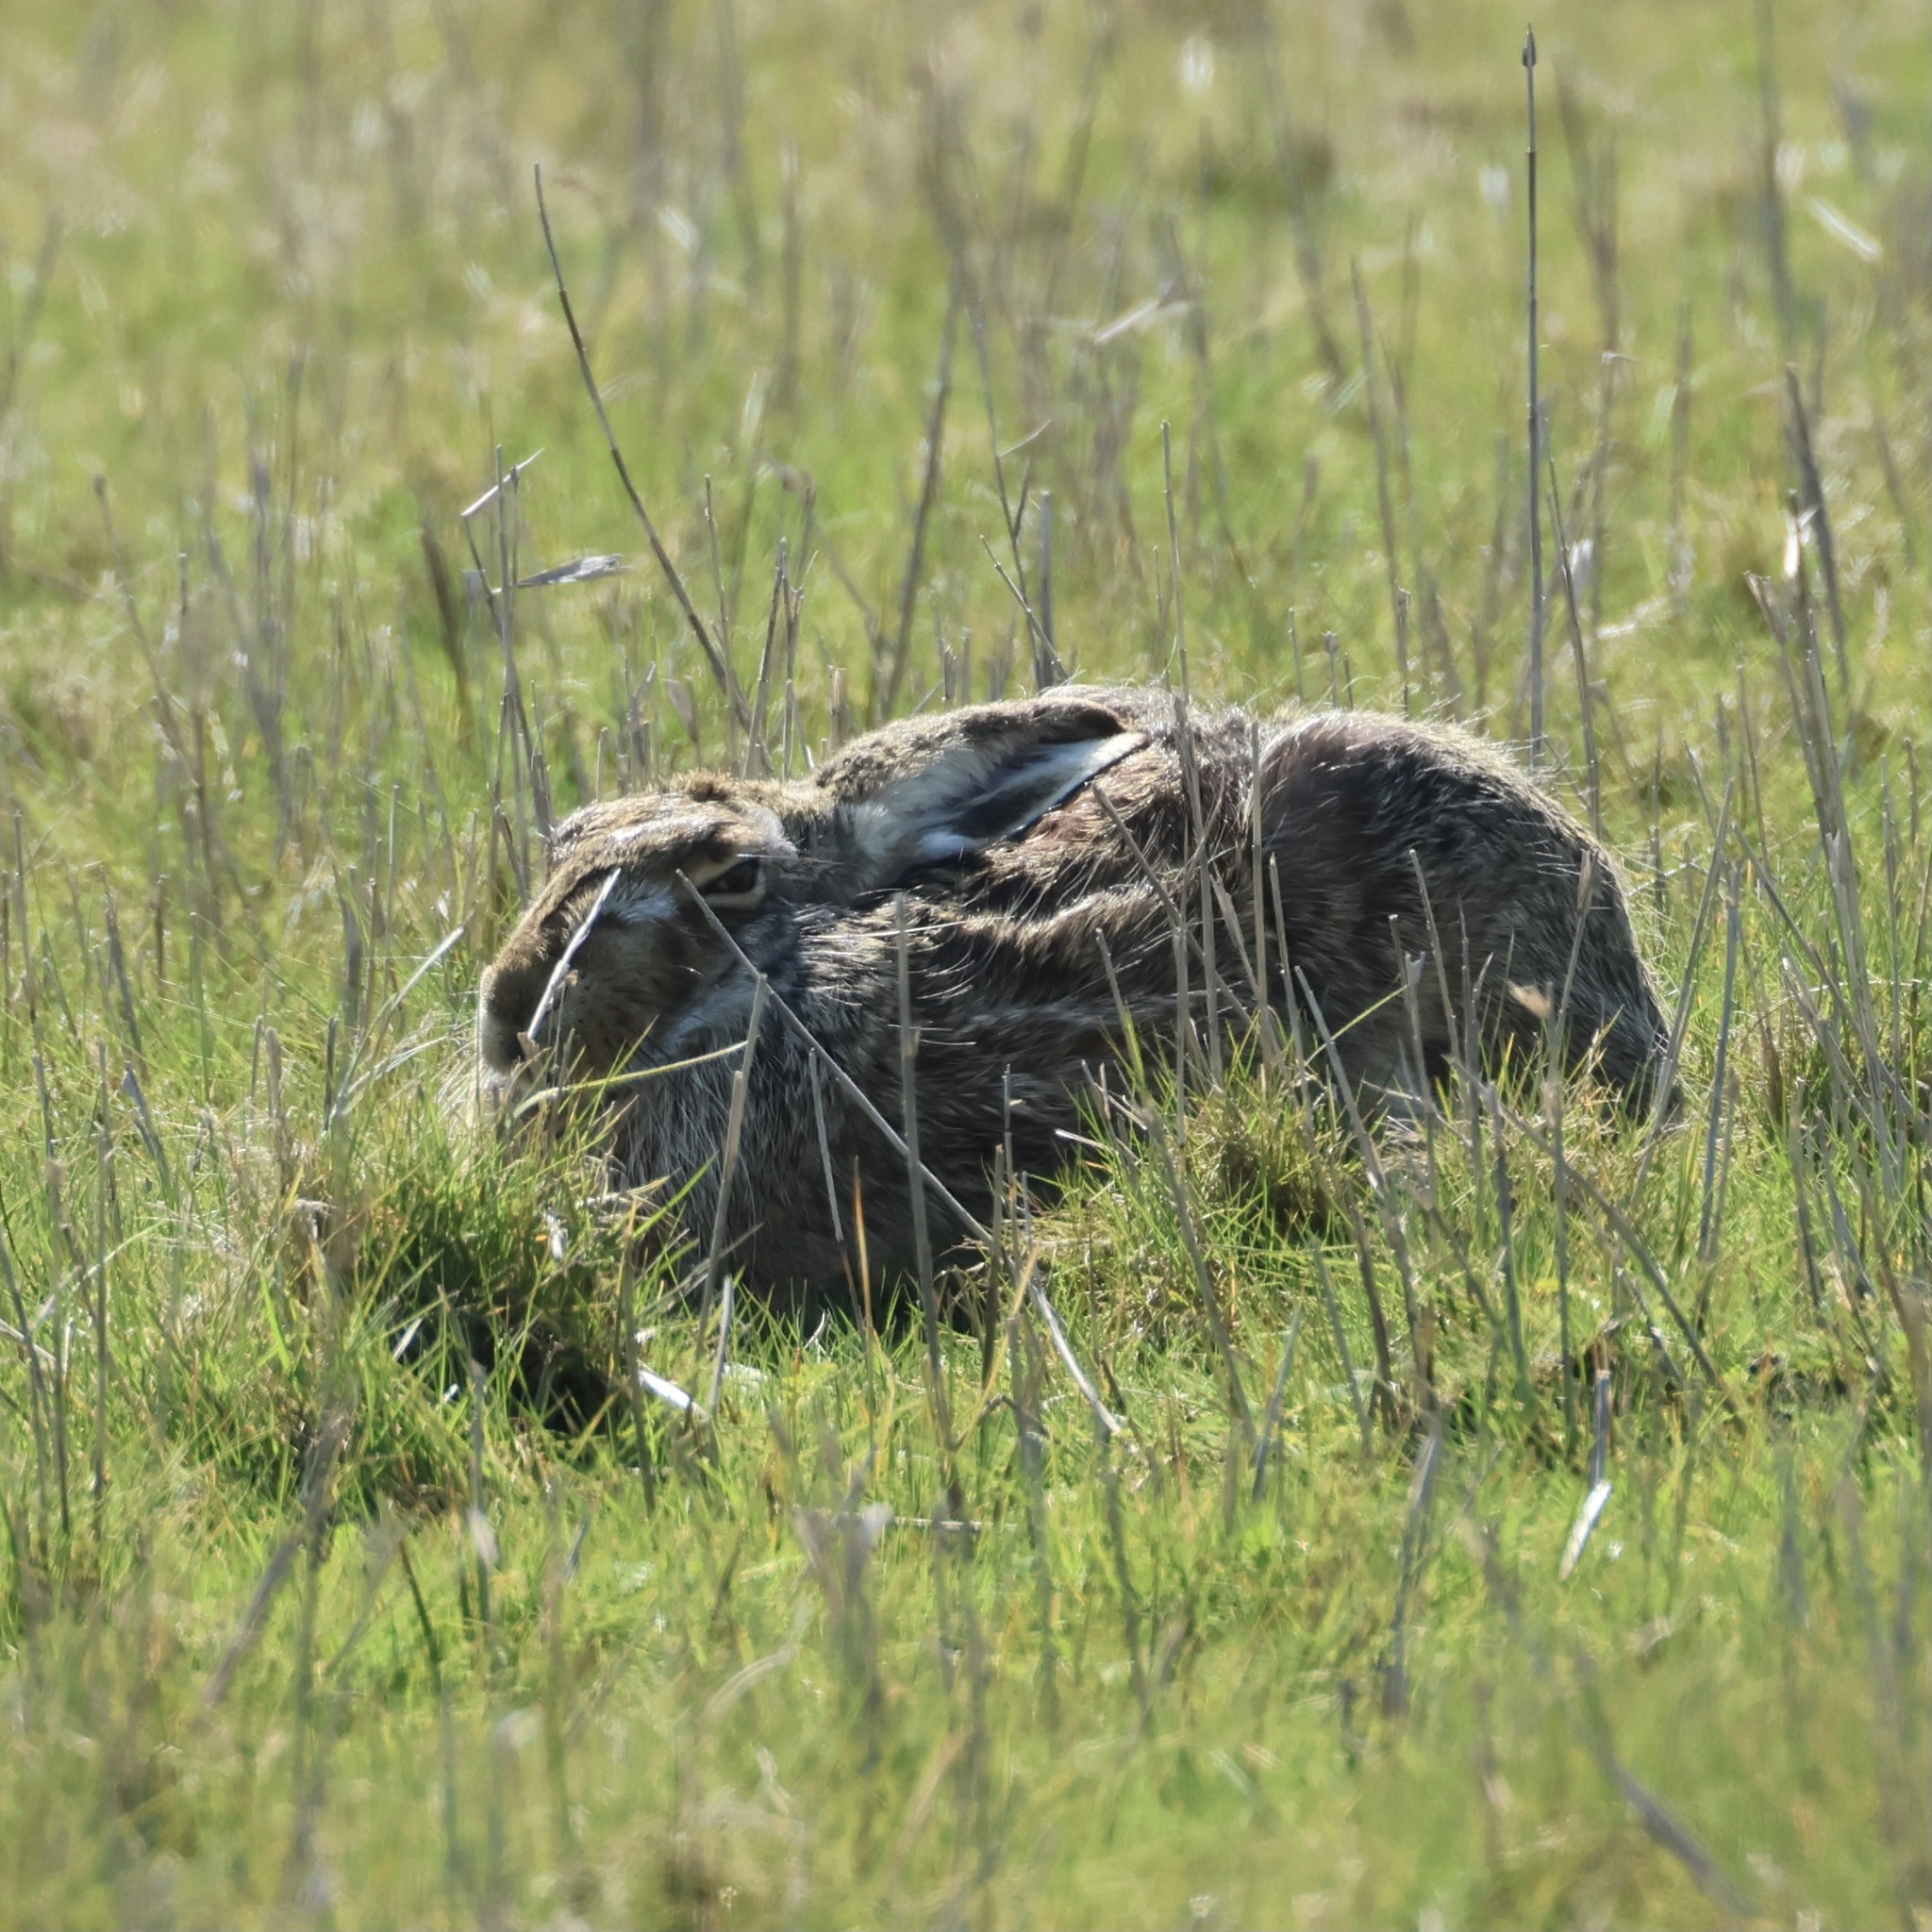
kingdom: Animalia
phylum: Chordata
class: Mammalia
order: Lagomorpha
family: Leporidae
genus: Lepus
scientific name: Lepus europaeus
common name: European hare
